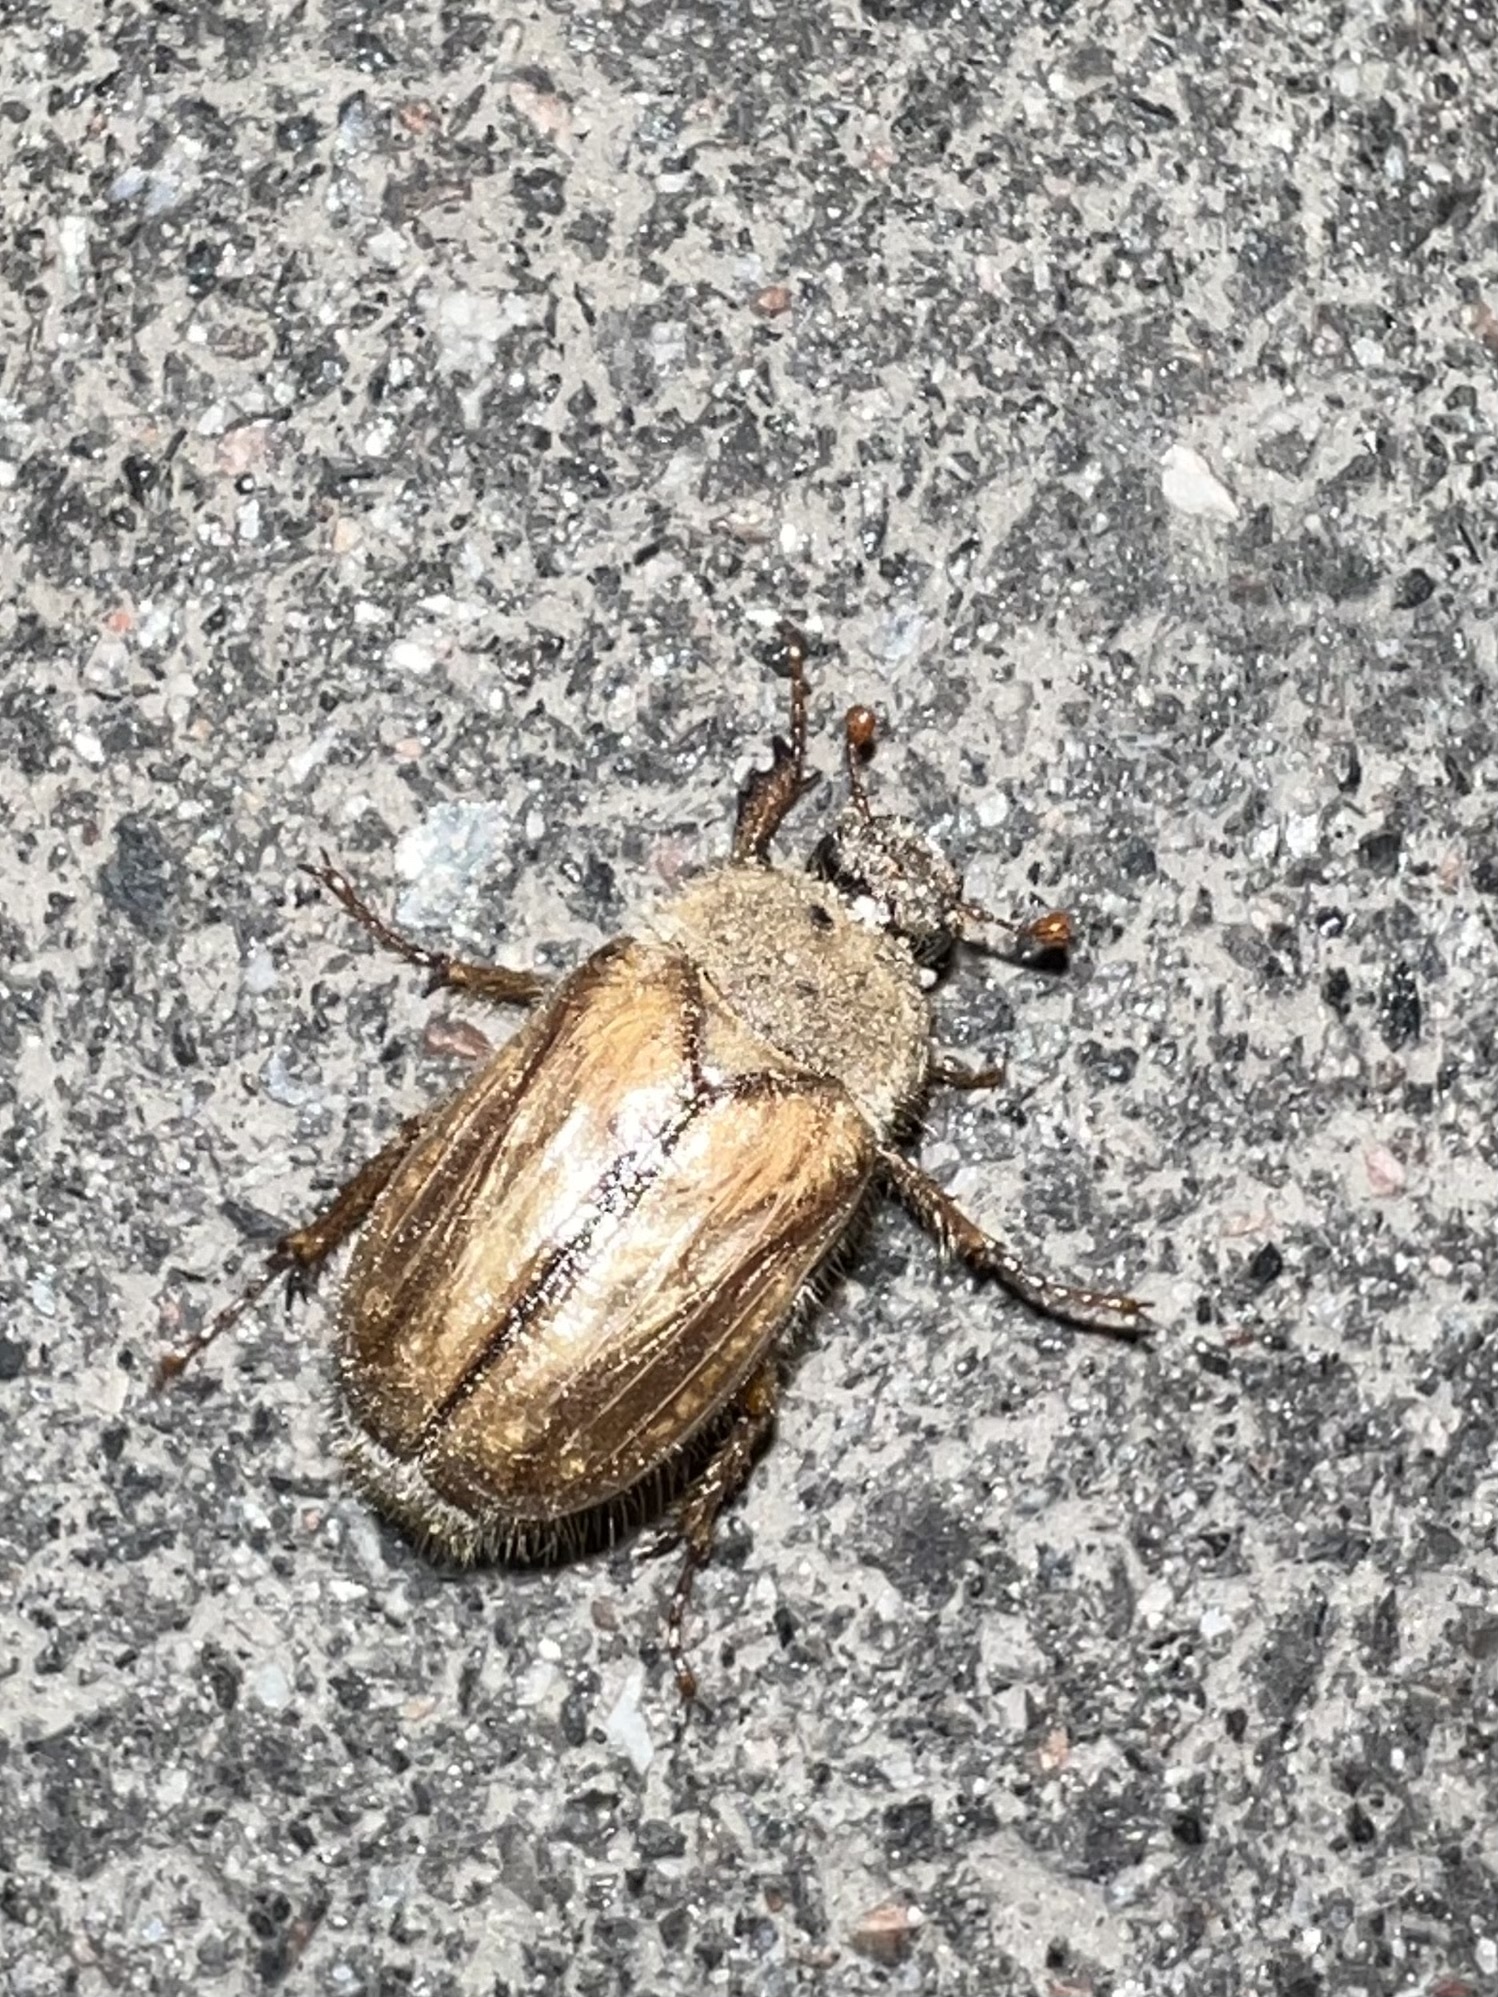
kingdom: Animalia
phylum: Arthropoda
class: Insecta
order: Coleoptera
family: Scarabaeidae
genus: Amphimallon
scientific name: Amphimallon solstitiale
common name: Summer chafer
